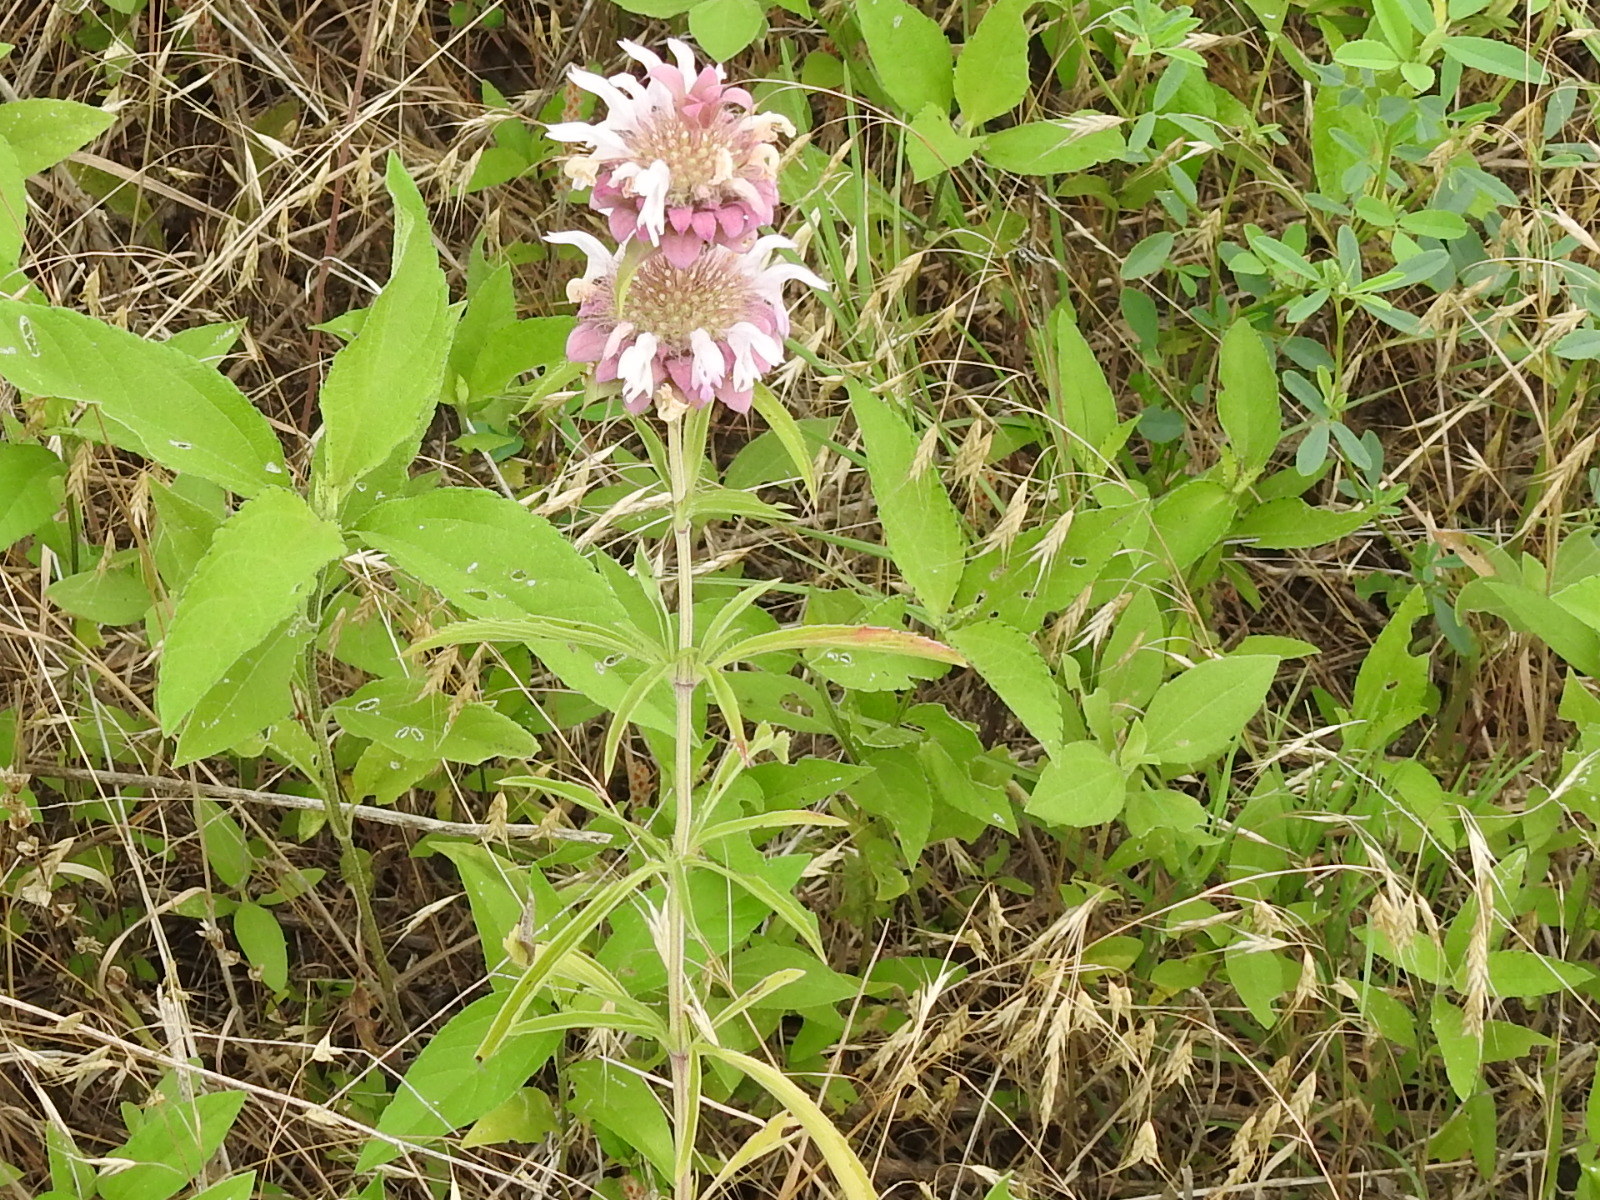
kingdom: Plantae
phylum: Tracheophyta
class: Magnoliopsida
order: Lamiales
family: Lamiaceae
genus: Monarda
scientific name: Monarda citriodora
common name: Lemon beebalm
